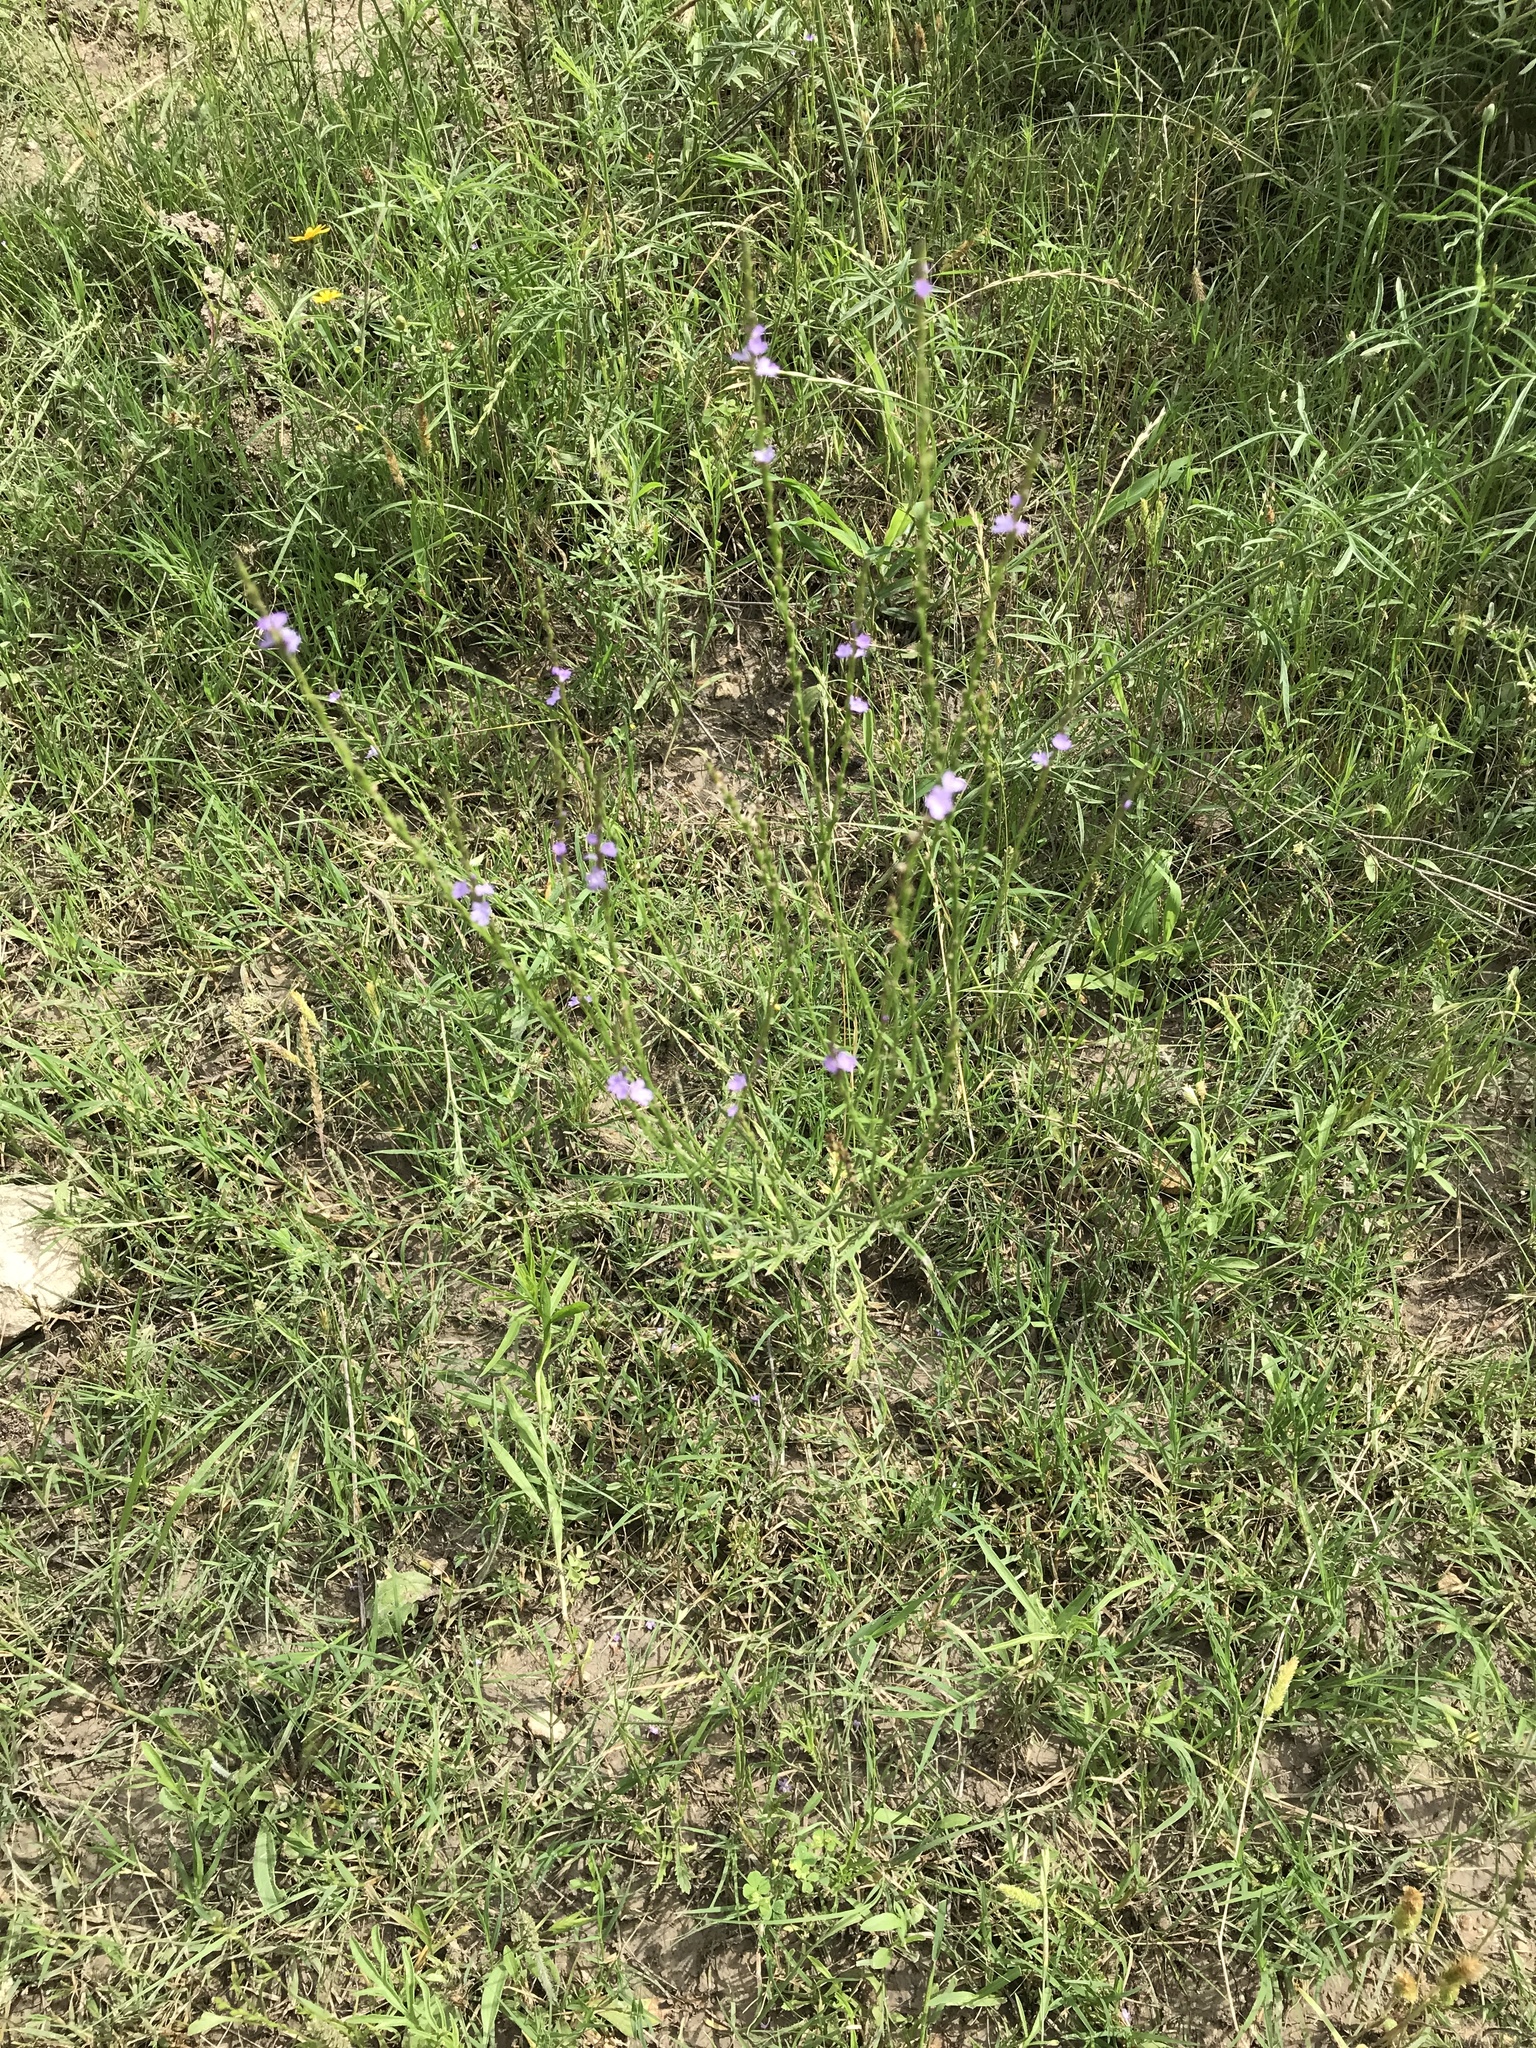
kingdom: Plantae
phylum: Tracheophyta
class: Magnoliopsida
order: Lamiales
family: Verbenaceae
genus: Verbena
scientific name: Verbena halei
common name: Texas vervain
